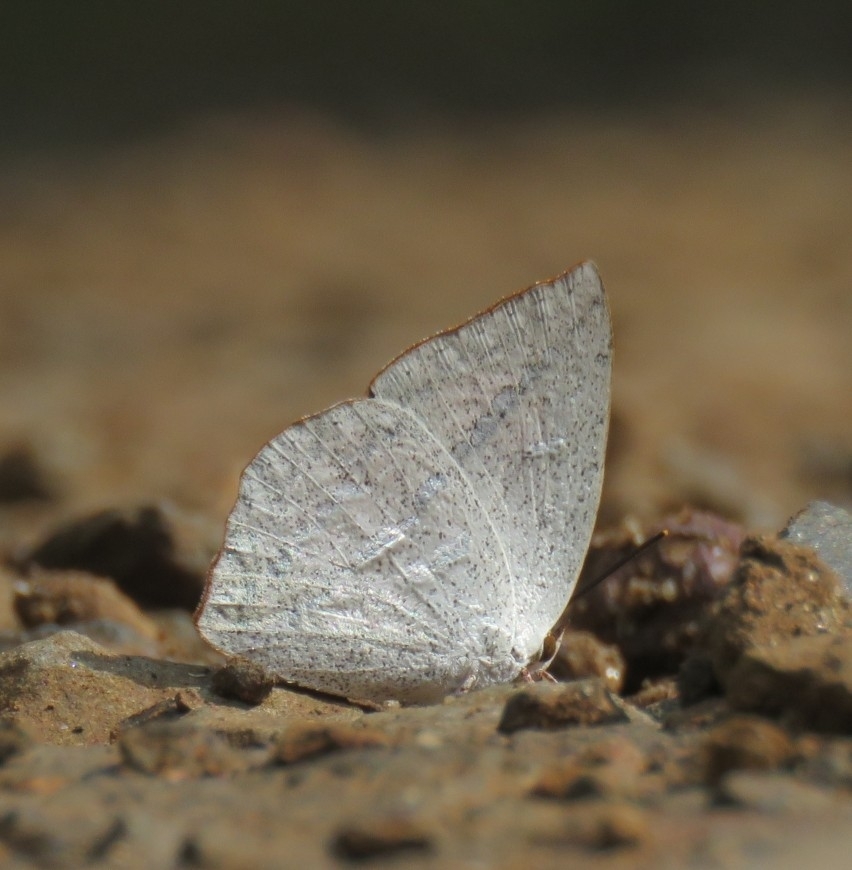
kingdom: Animalia
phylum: Arthropoda
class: Insecta
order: Lepidoptera
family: Lycaenidae
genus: Curetis
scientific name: Curetis acuta
